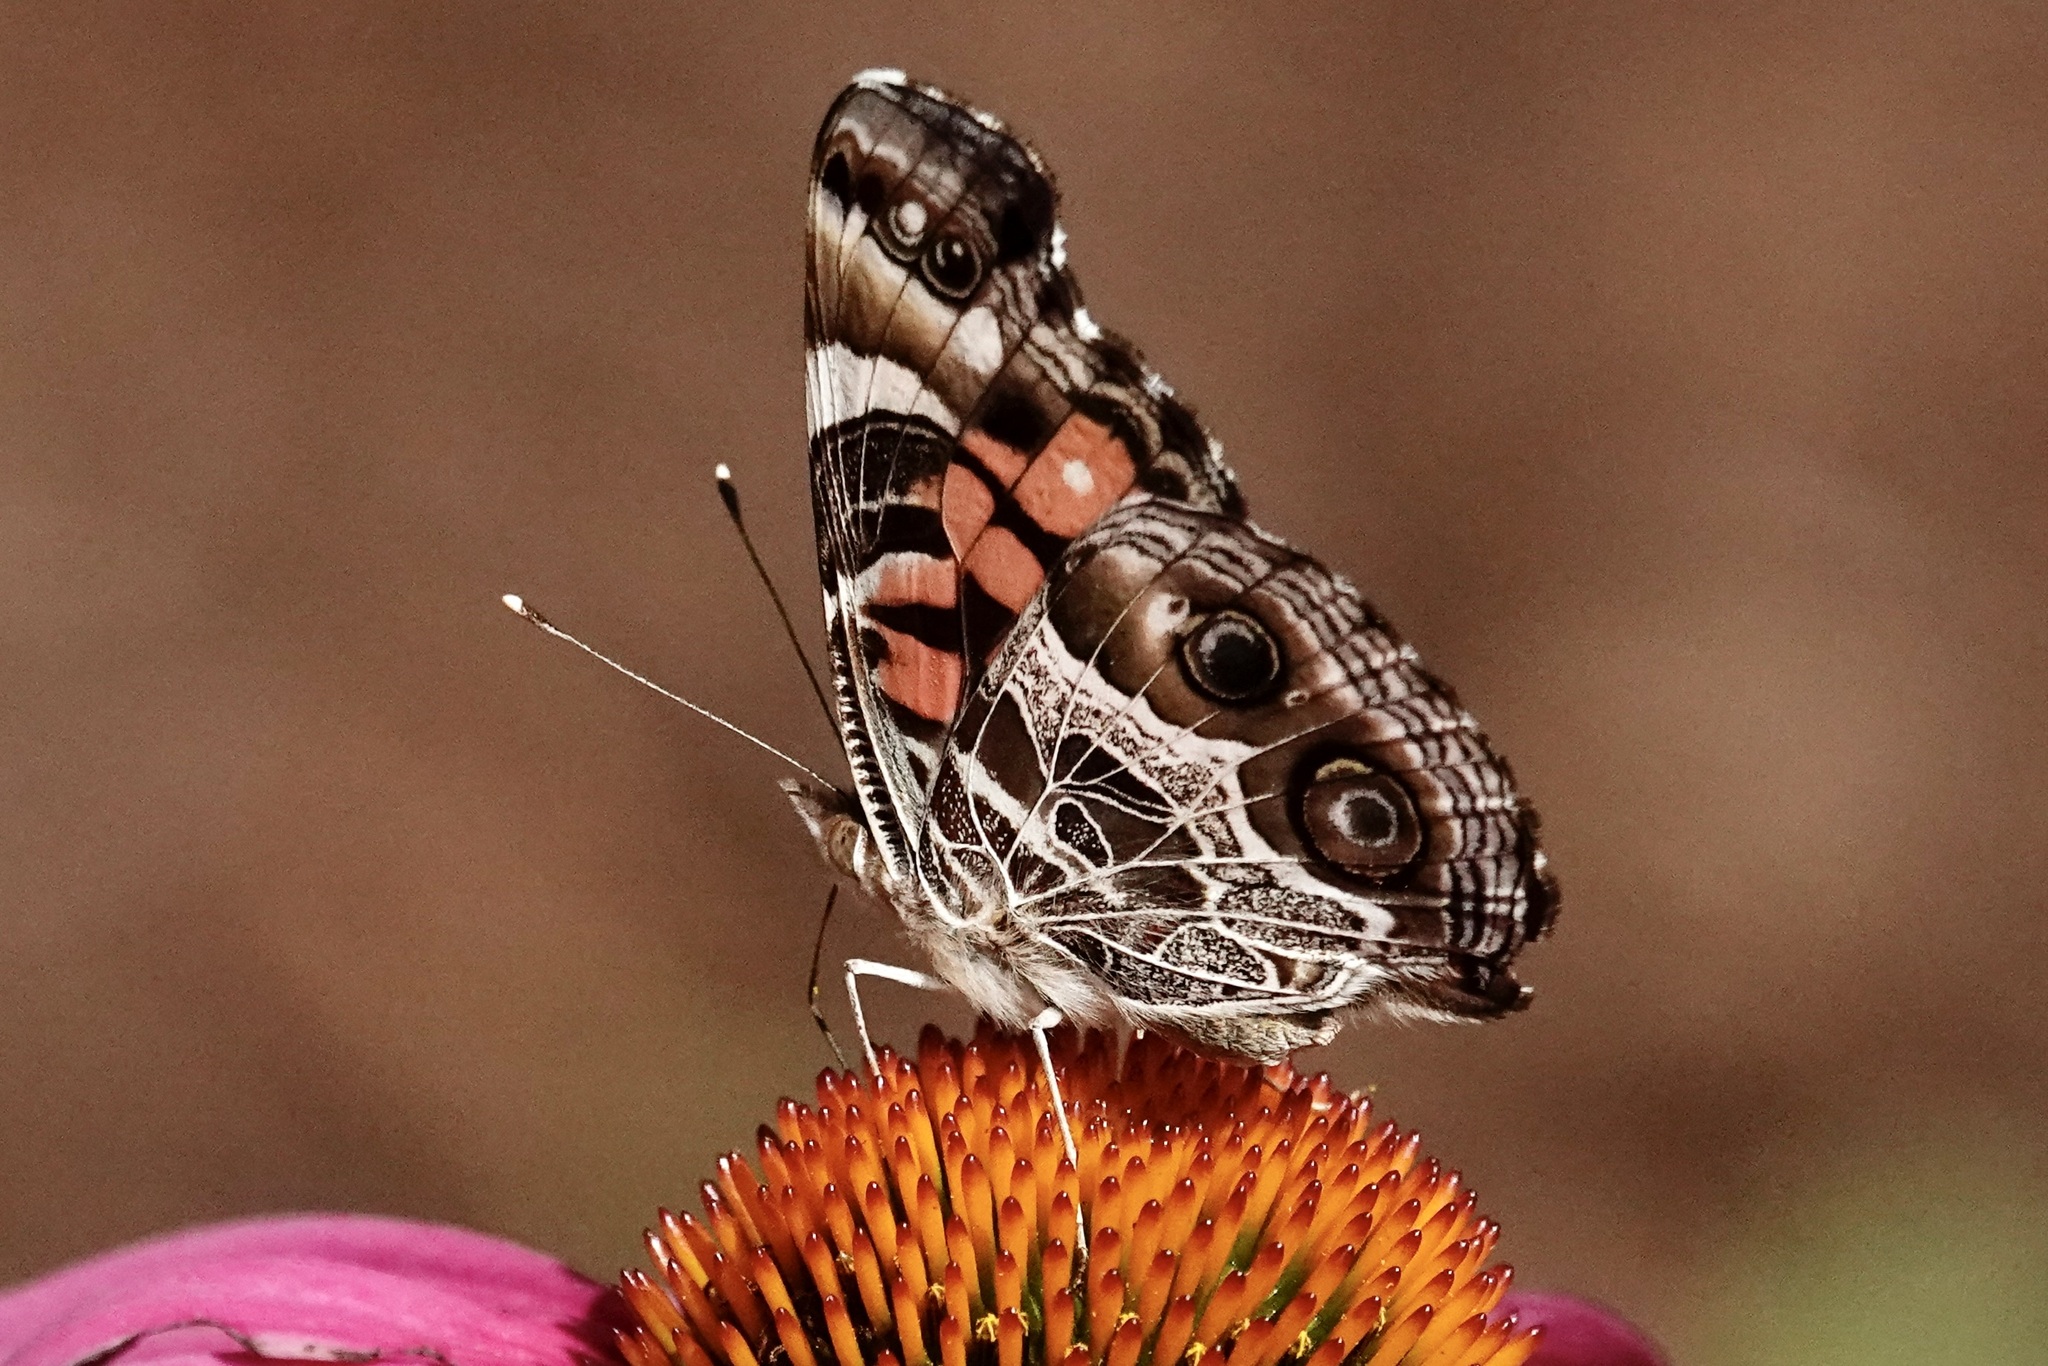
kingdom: Animalia
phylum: Arthropoda
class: Insecta
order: Lepidoptera
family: Nymphalidae
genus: Vanessa
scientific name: Vanessa virginiensis
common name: American lady
